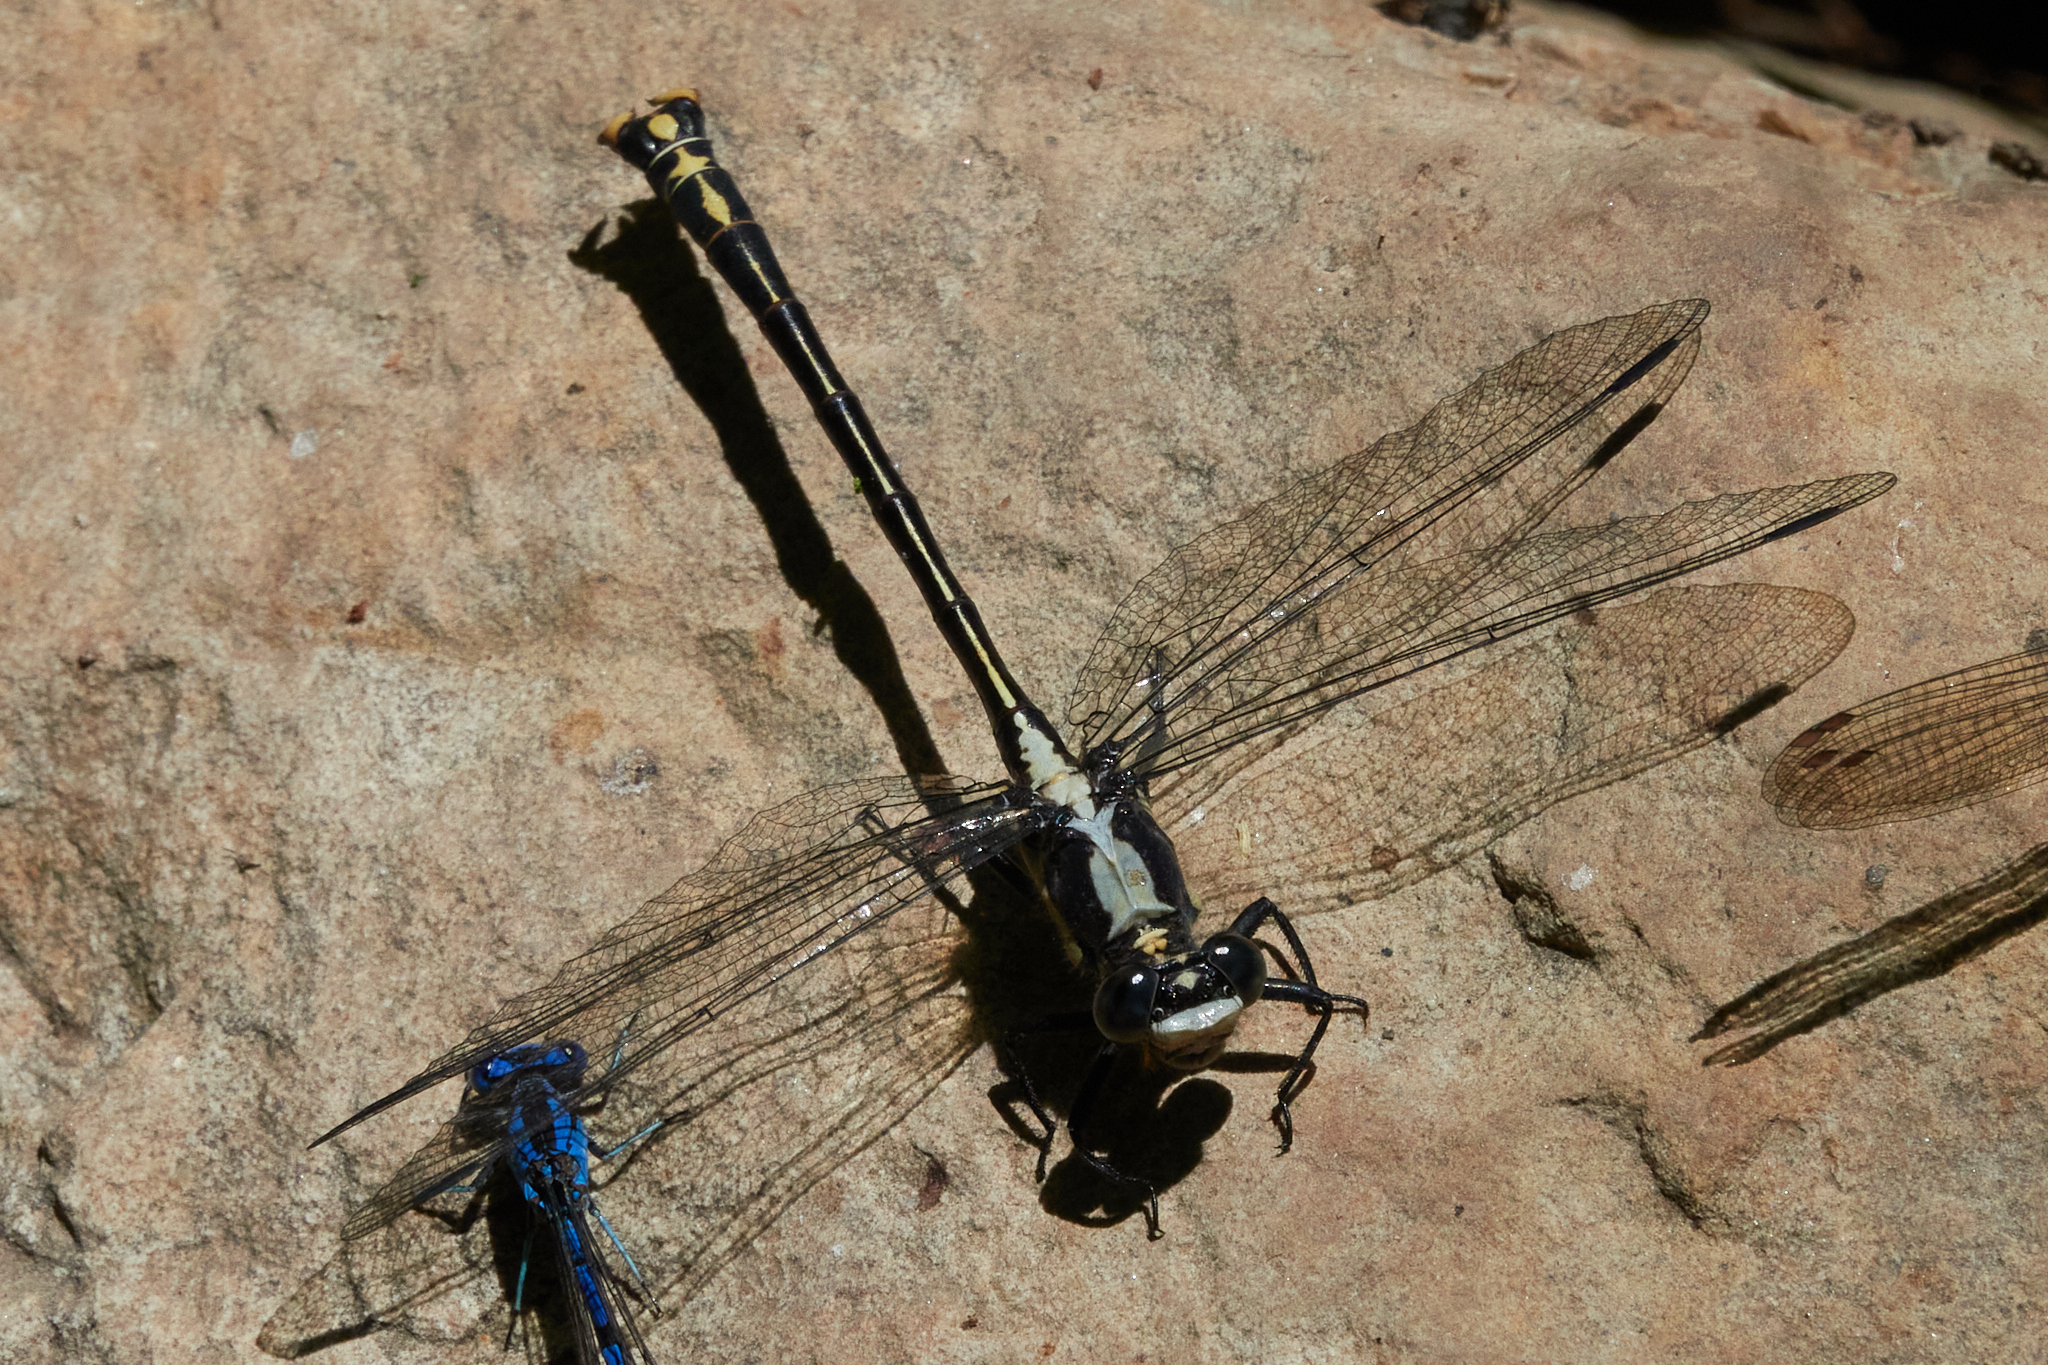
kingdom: Animalia
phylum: Arthropoda
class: Insecta
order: Odonata
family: Gomphidae
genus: Octogomphus
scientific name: Octogomphus specularis
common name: Grappletail
